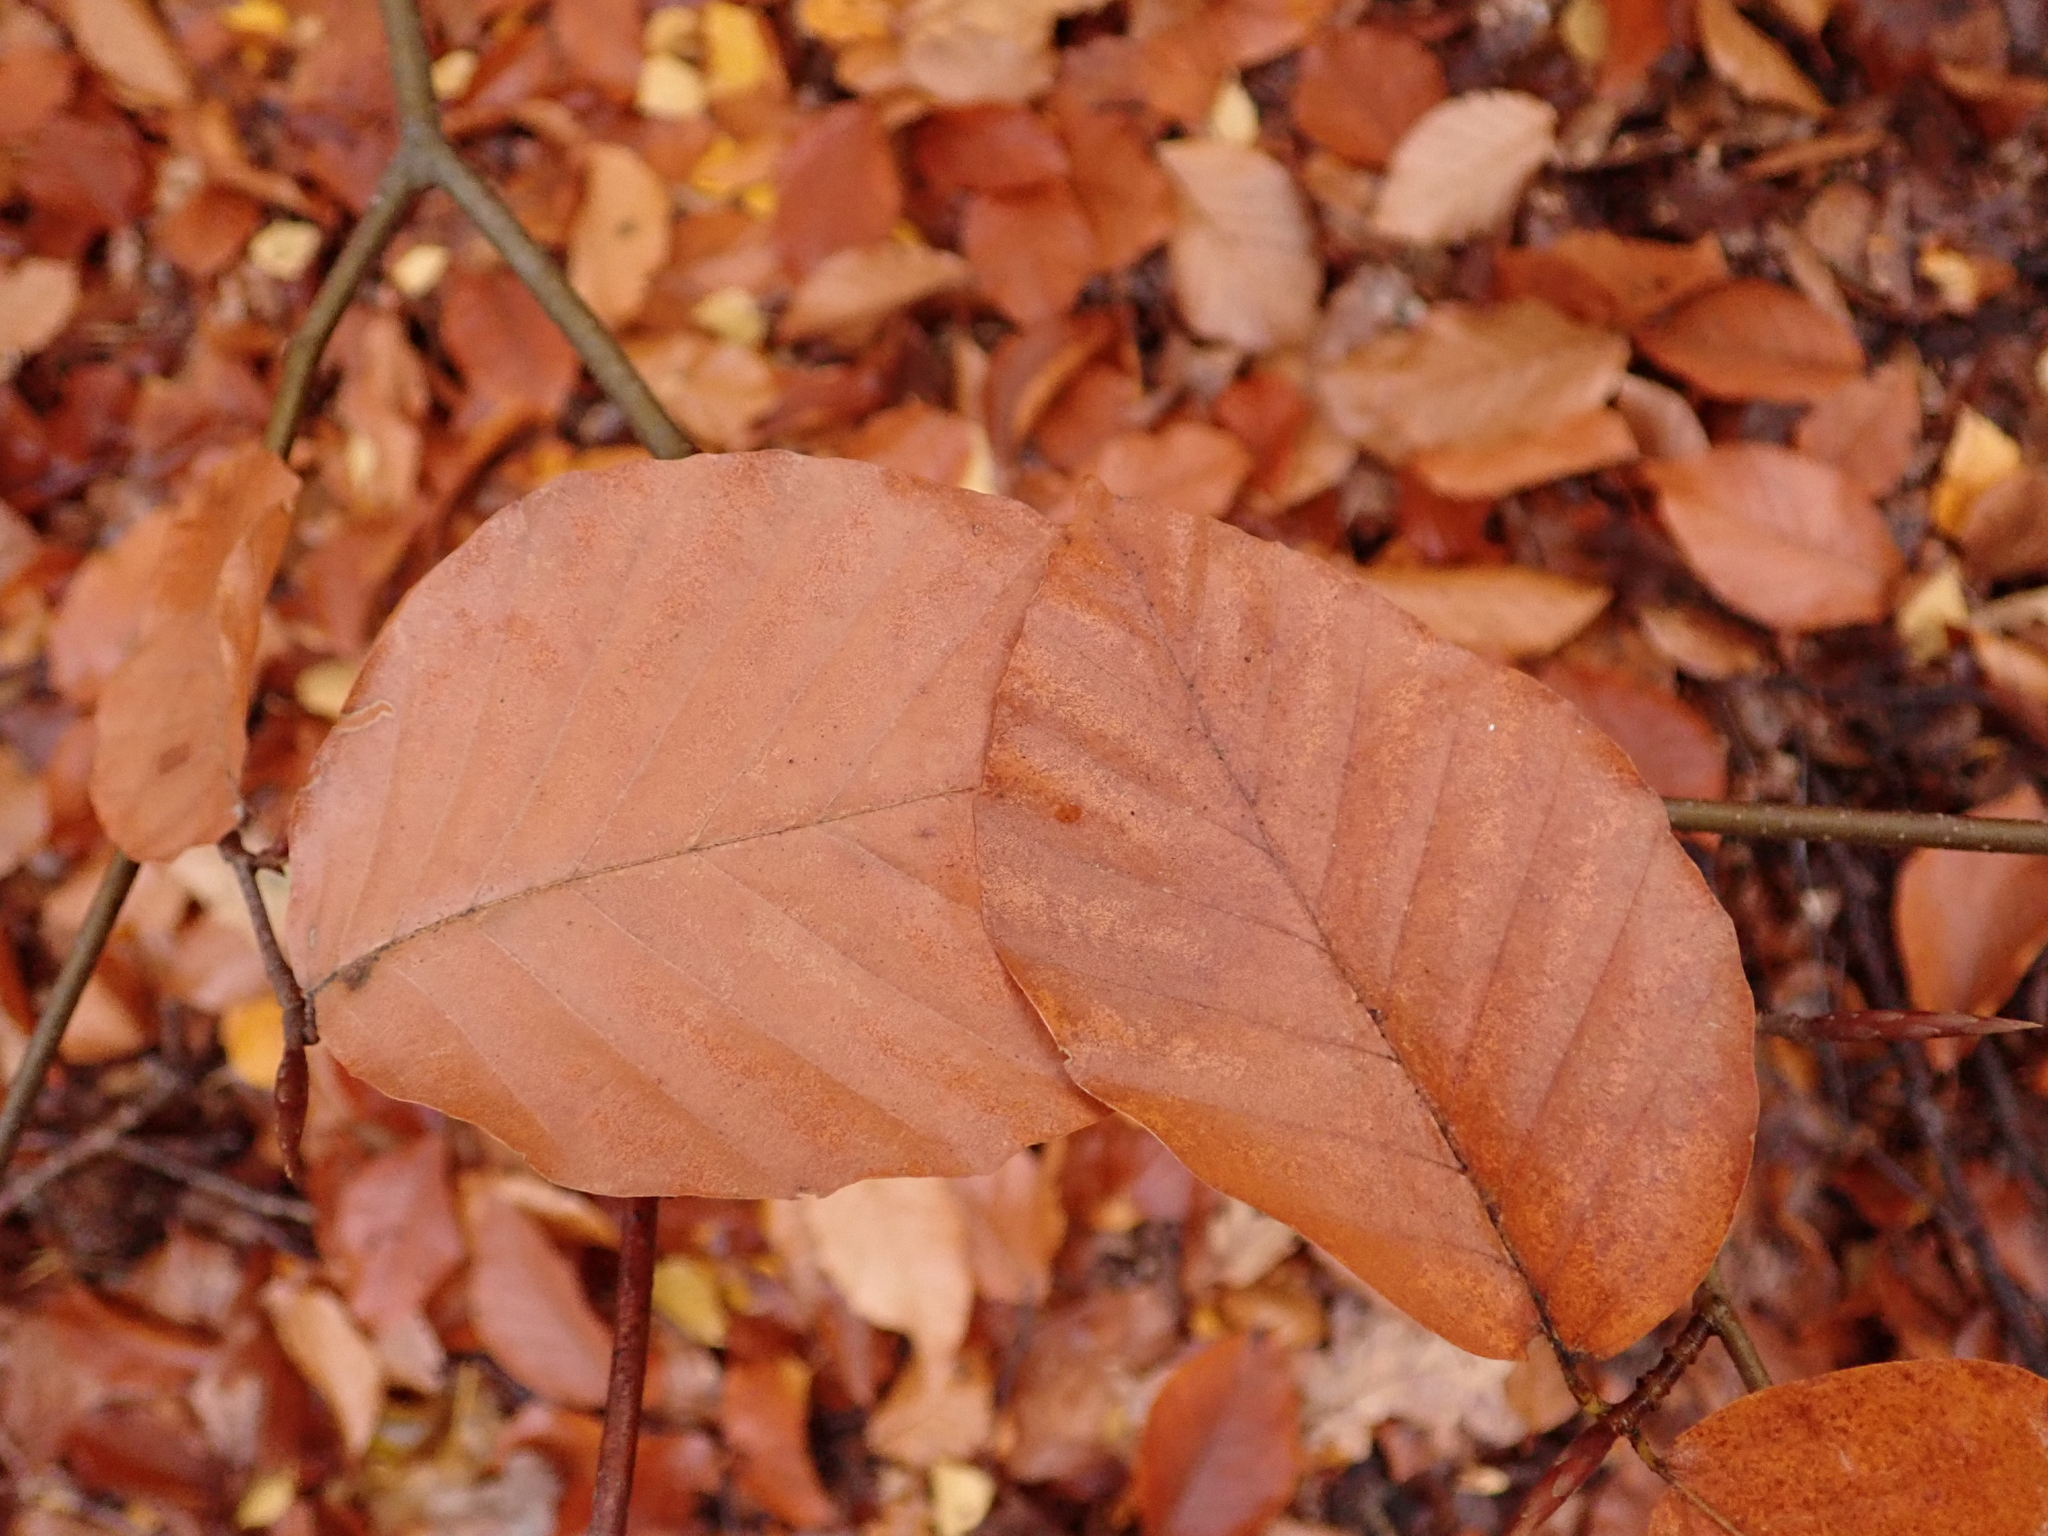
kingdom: Plantae
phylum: Tracheophyta
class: Magnoliopsida
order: Fagales
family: Fagaceae
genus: Fagus
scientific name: Fagus sylvatica
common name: Beech
